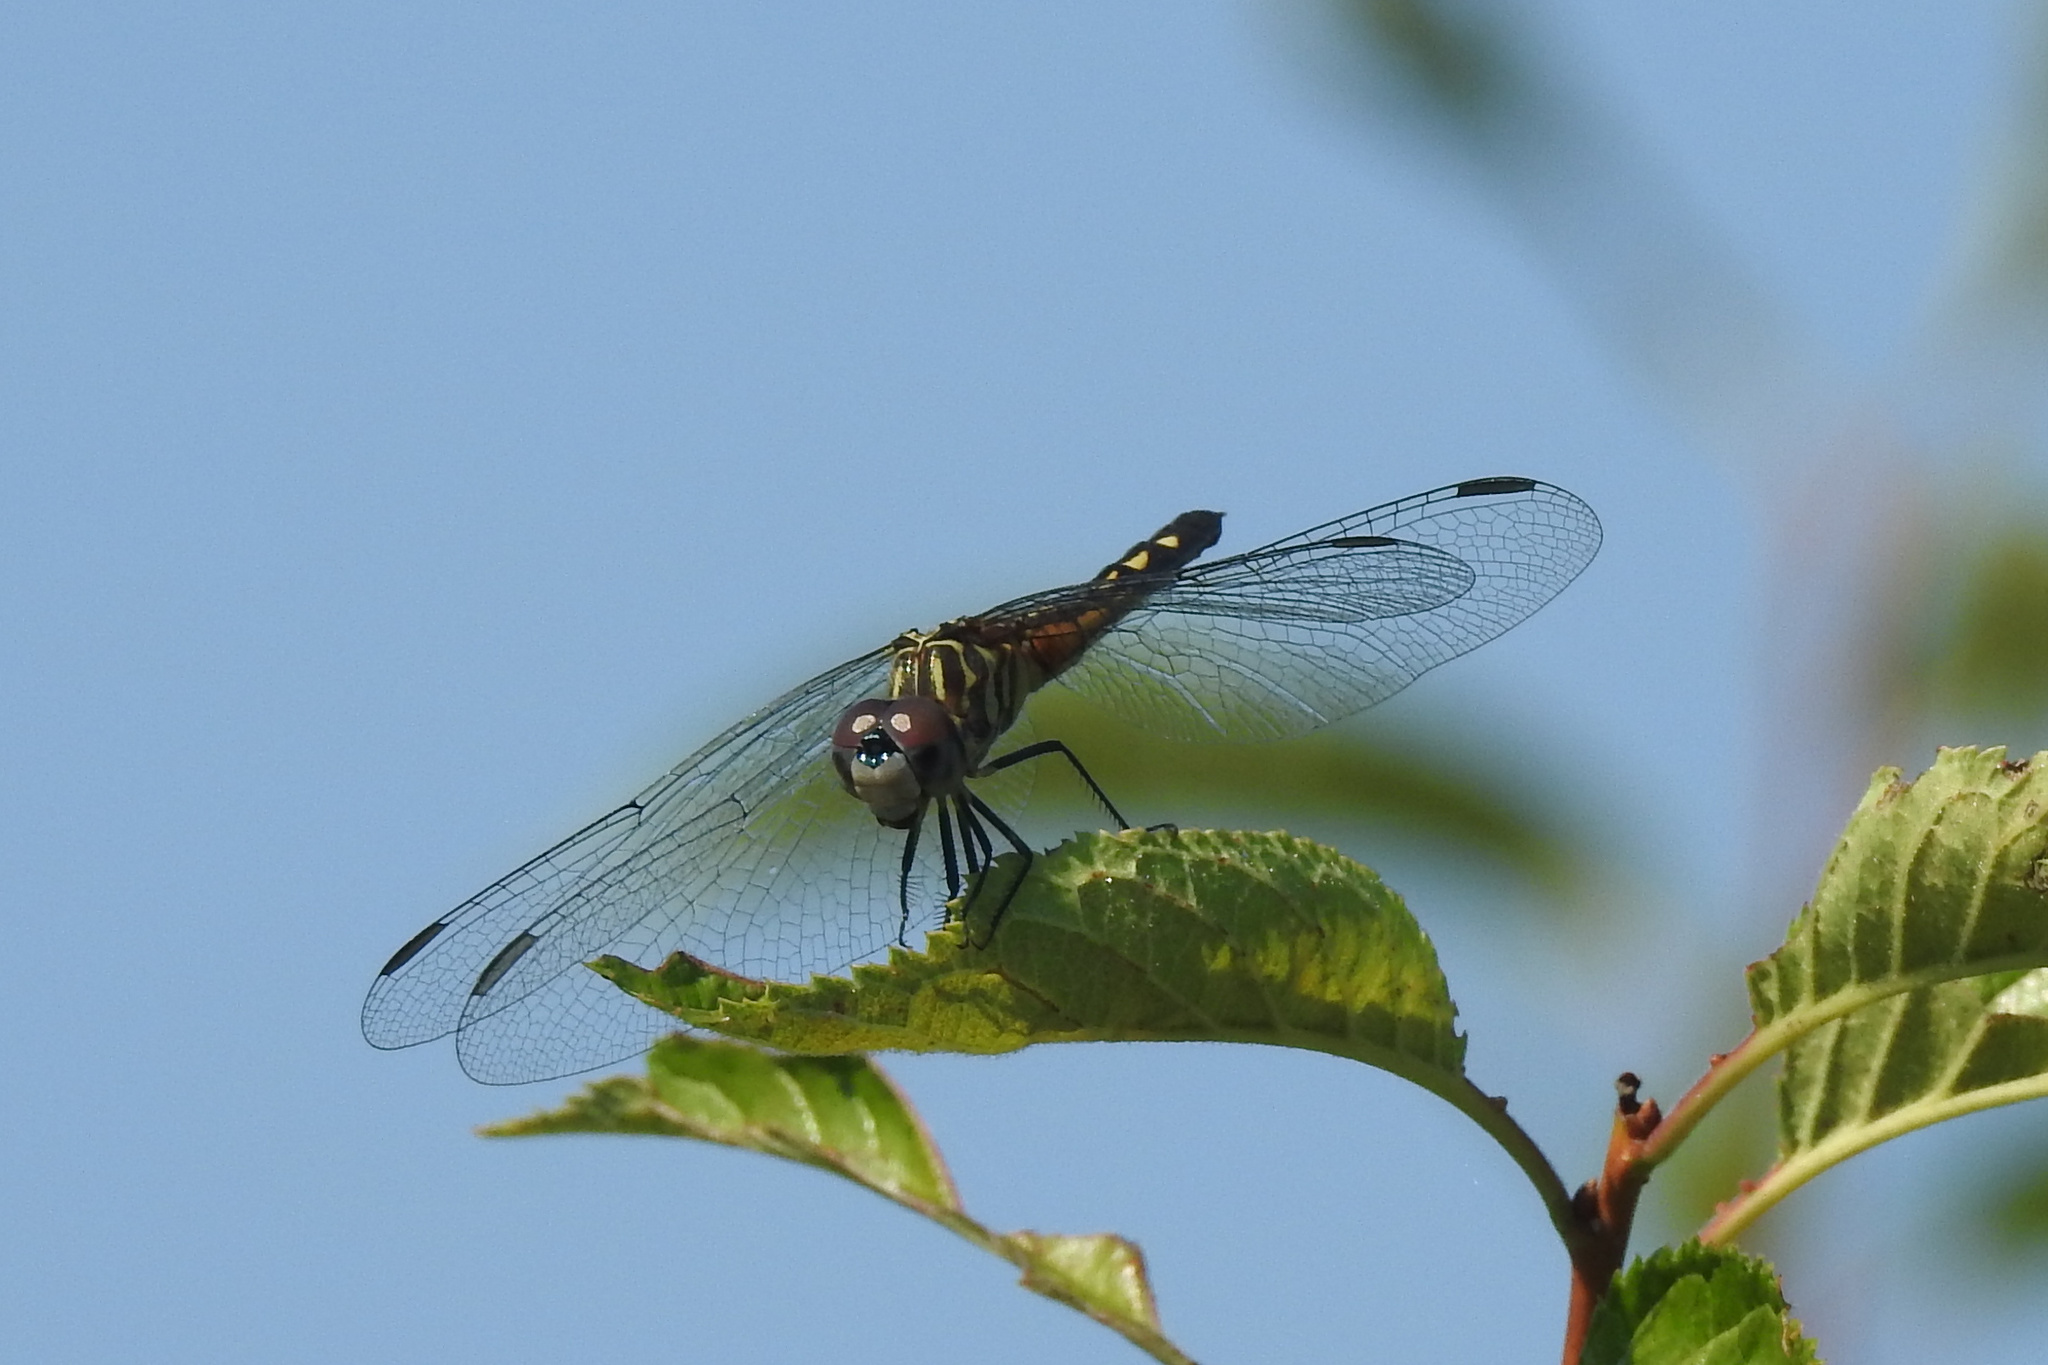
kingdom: Animalia
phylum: Arthropoda
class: Insecta
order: Odonata
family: Libellulidae
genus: Pachydiplax
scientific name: Pachydiplax longipennis
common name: Blue dasher
